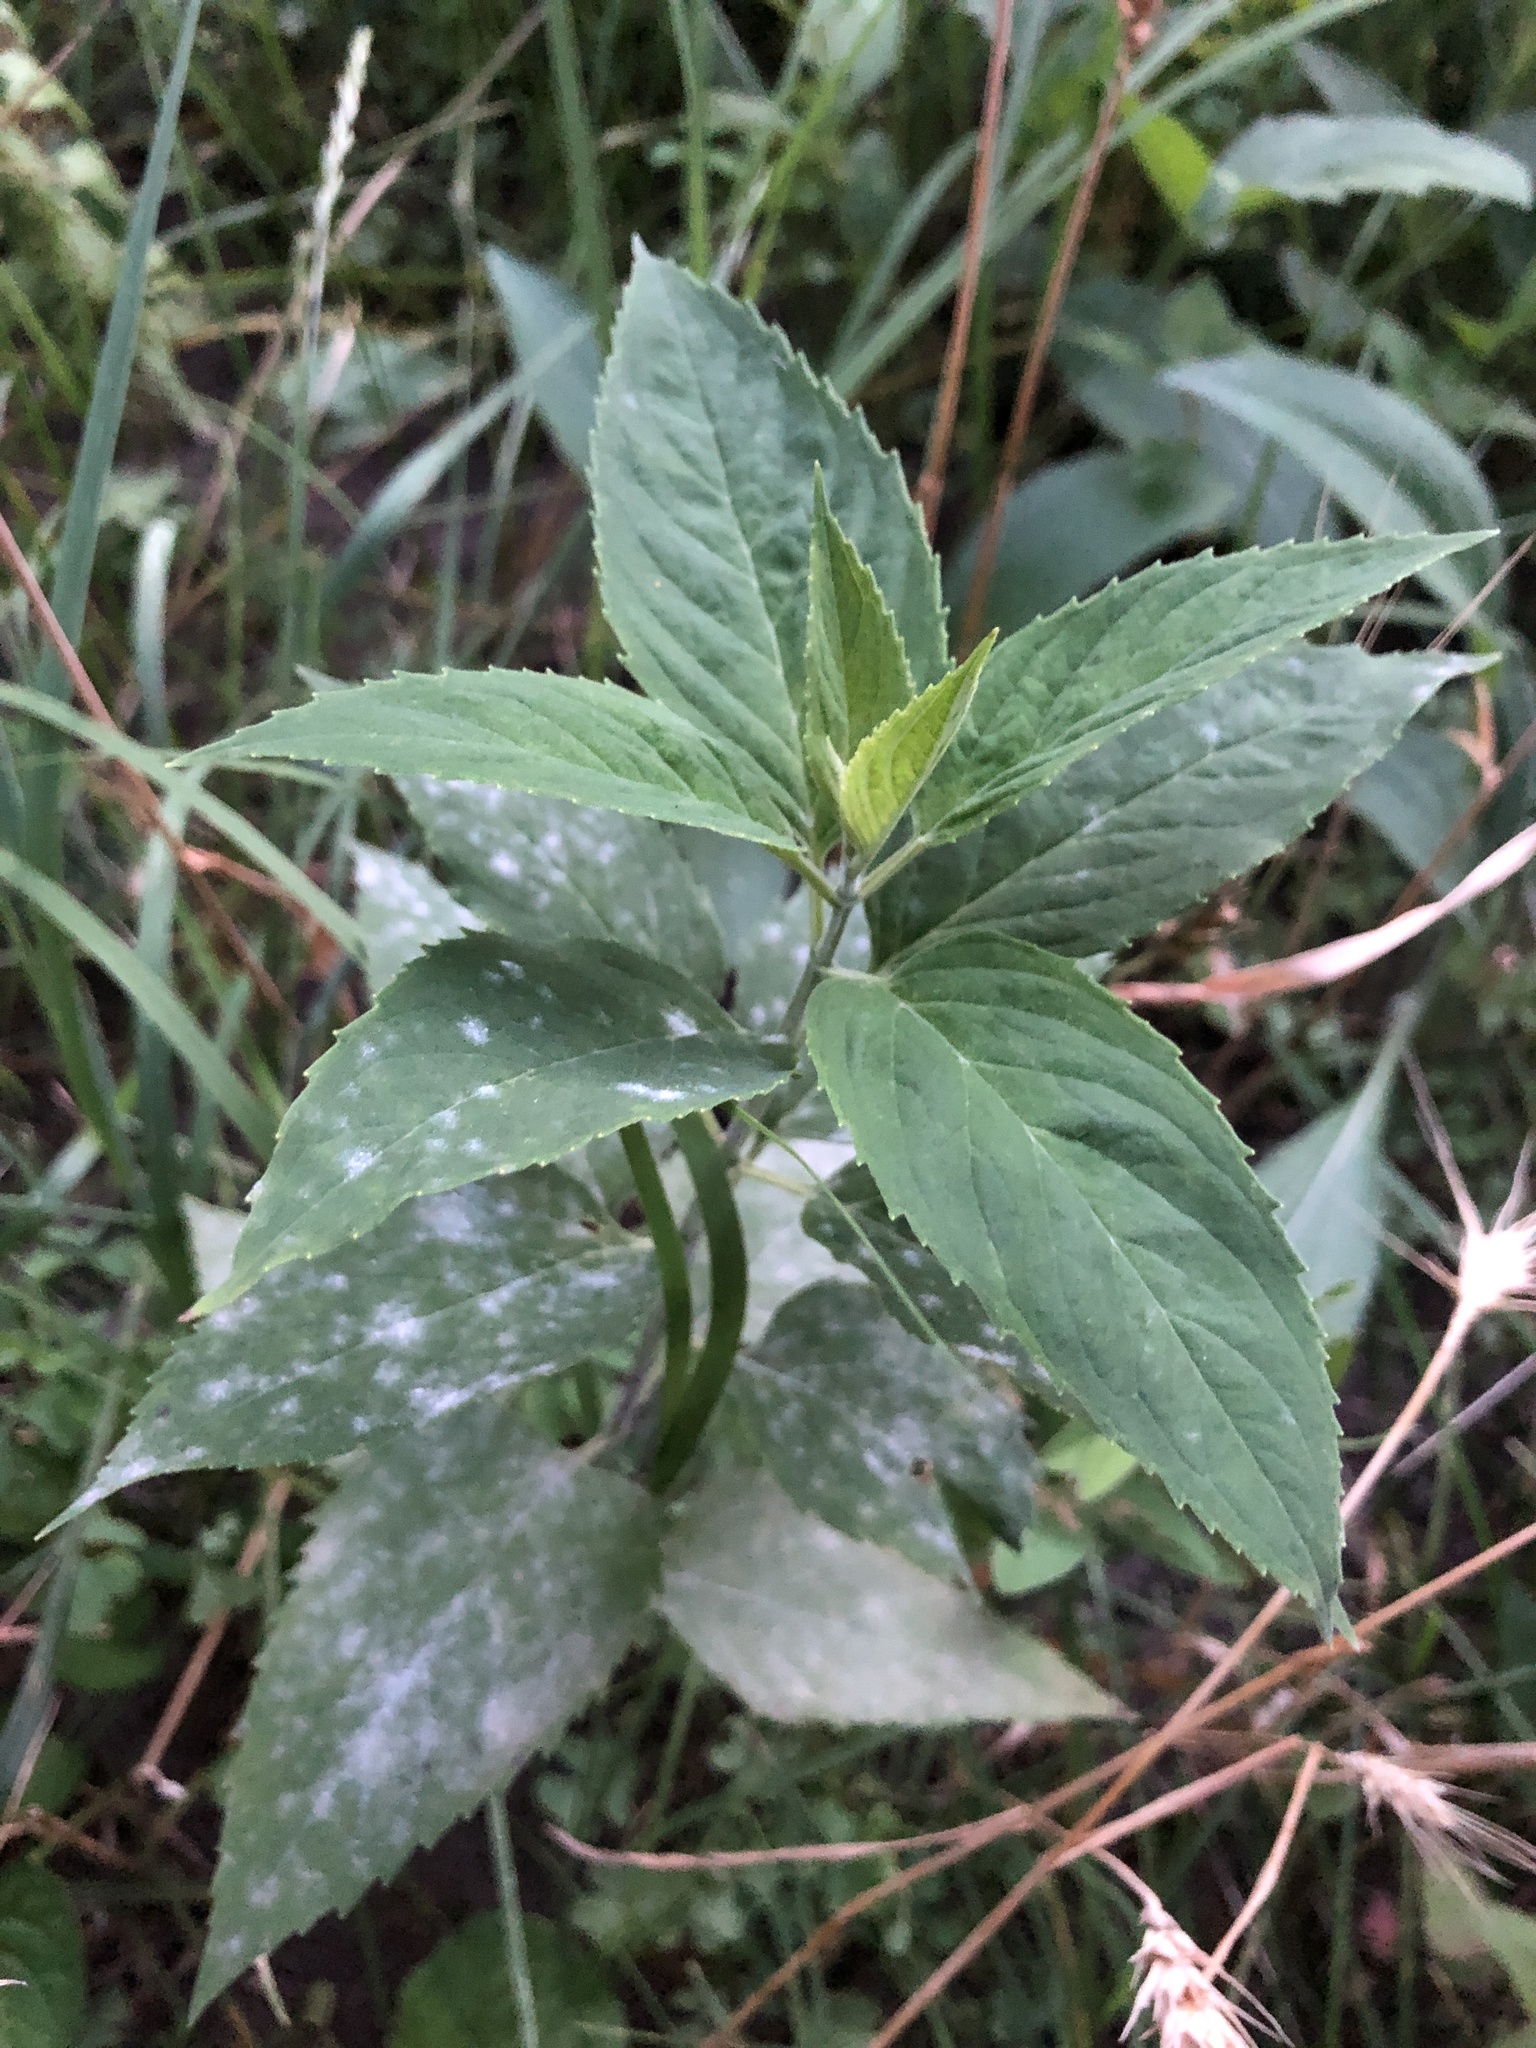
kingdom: Plantae
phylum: Tracheophyta
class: Magnoliopsida
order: Lamiales
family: Lamiaceae
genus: Monarda
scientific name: Monarda fistulosa
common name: Purple beebalm
